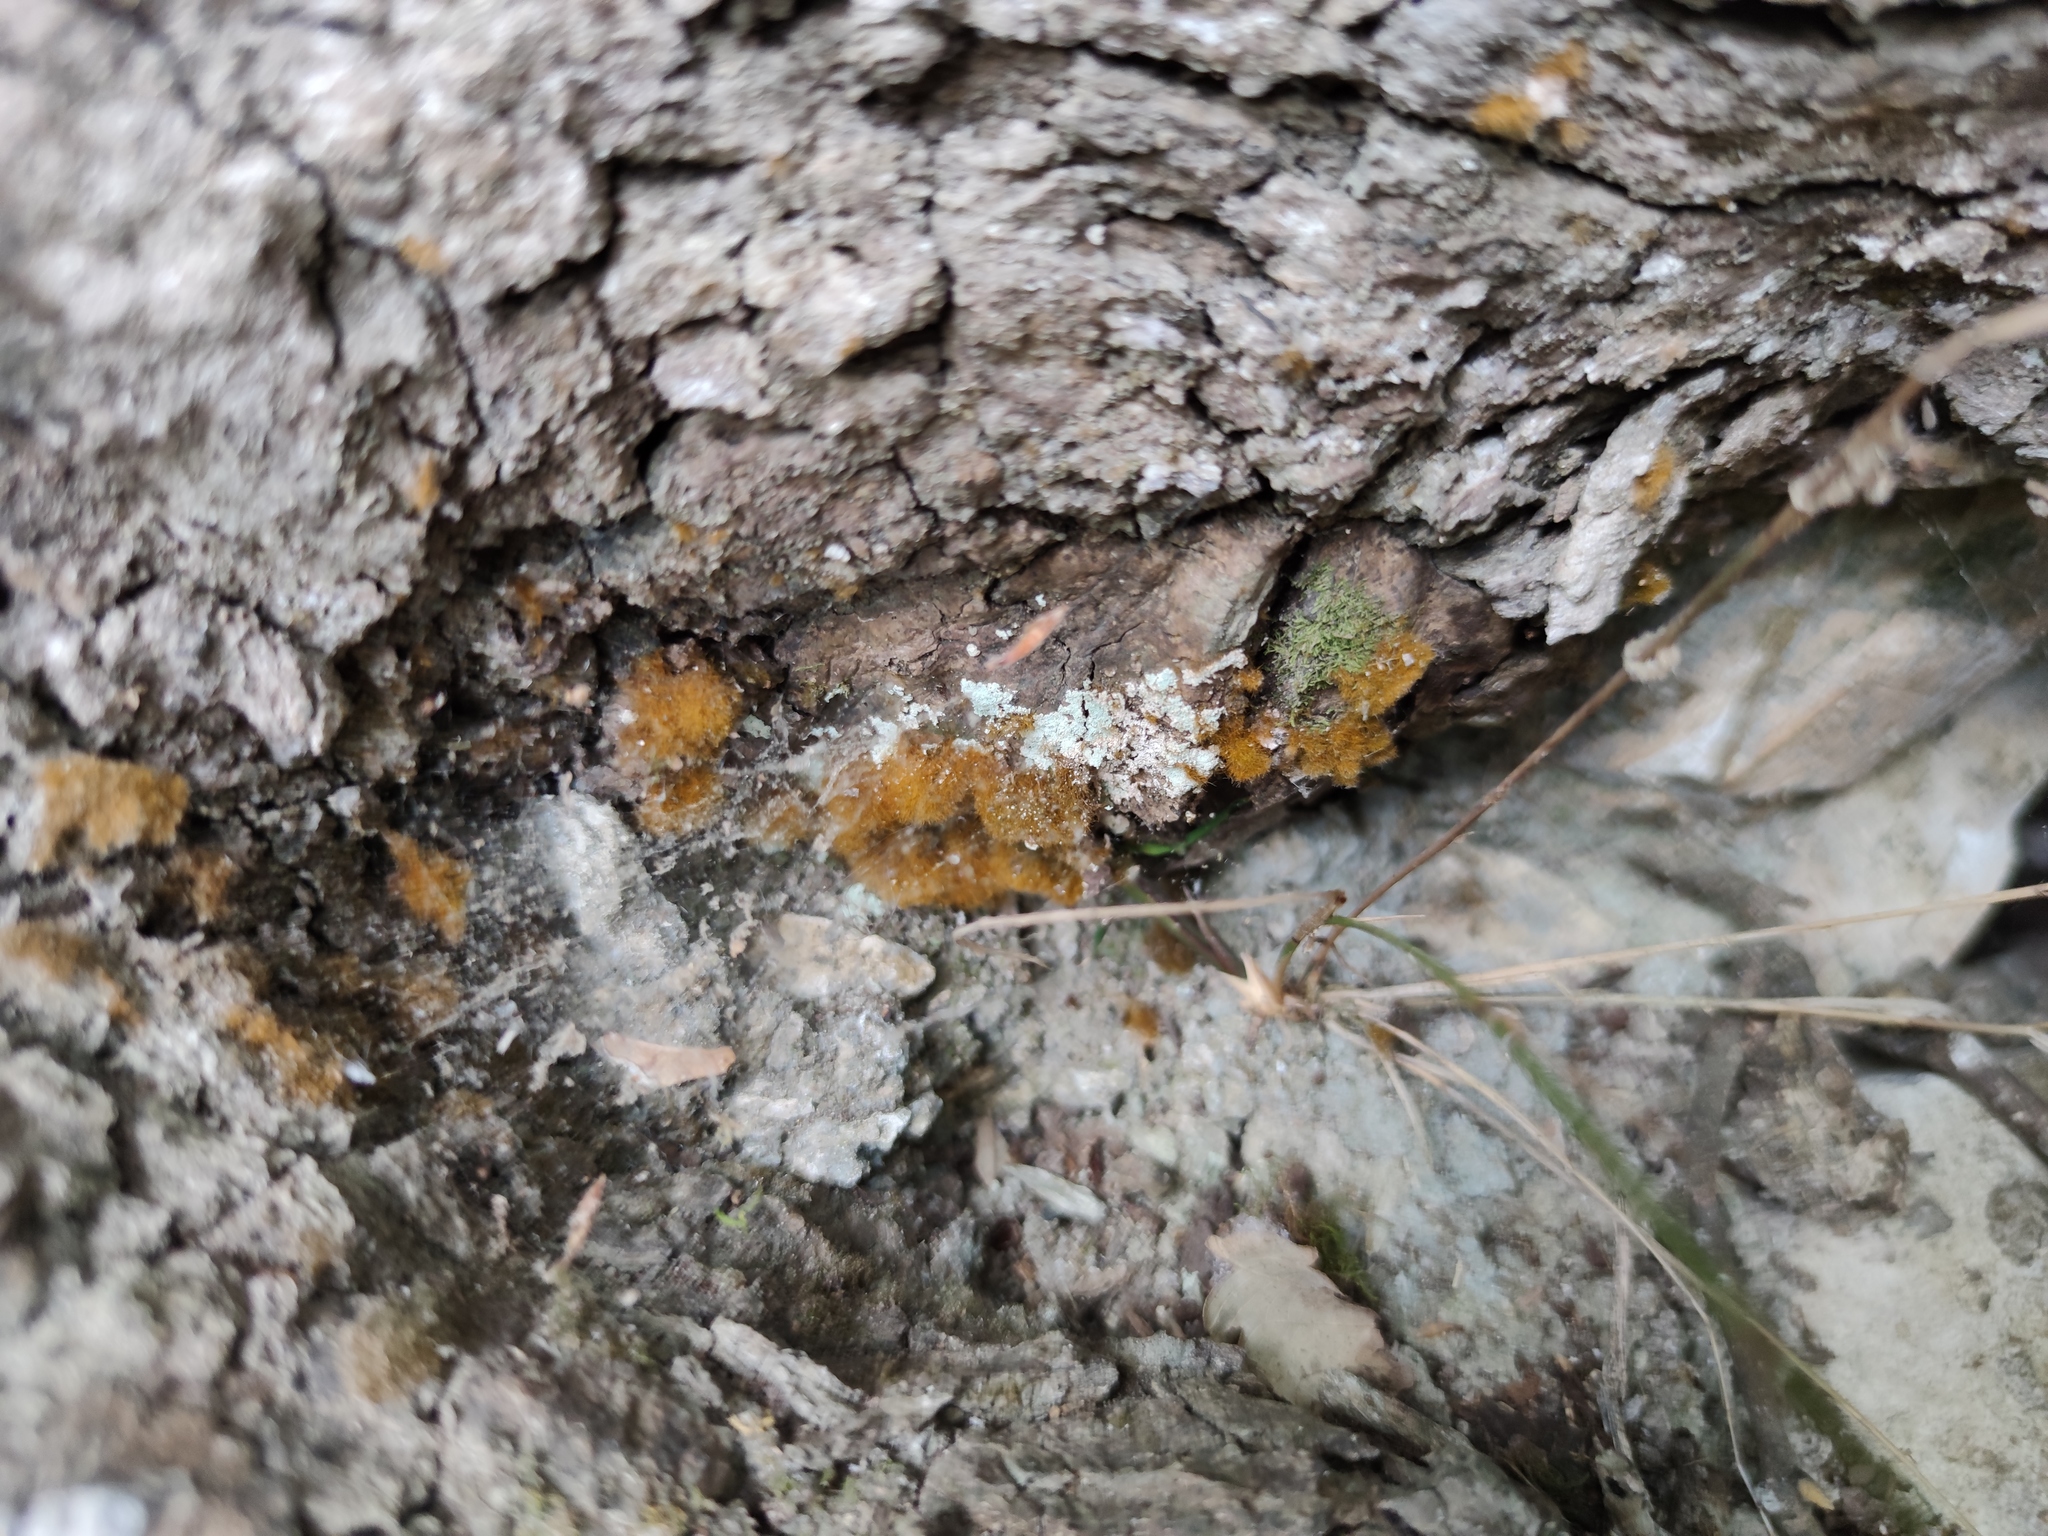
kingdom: Plantae
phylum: Chlorophyta
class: Ulvophyceae
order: Trentepohliales
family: Trentepohliaceae
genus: Trentepohlia
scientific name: Trentepohlia aurea
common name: Orange rock hair
